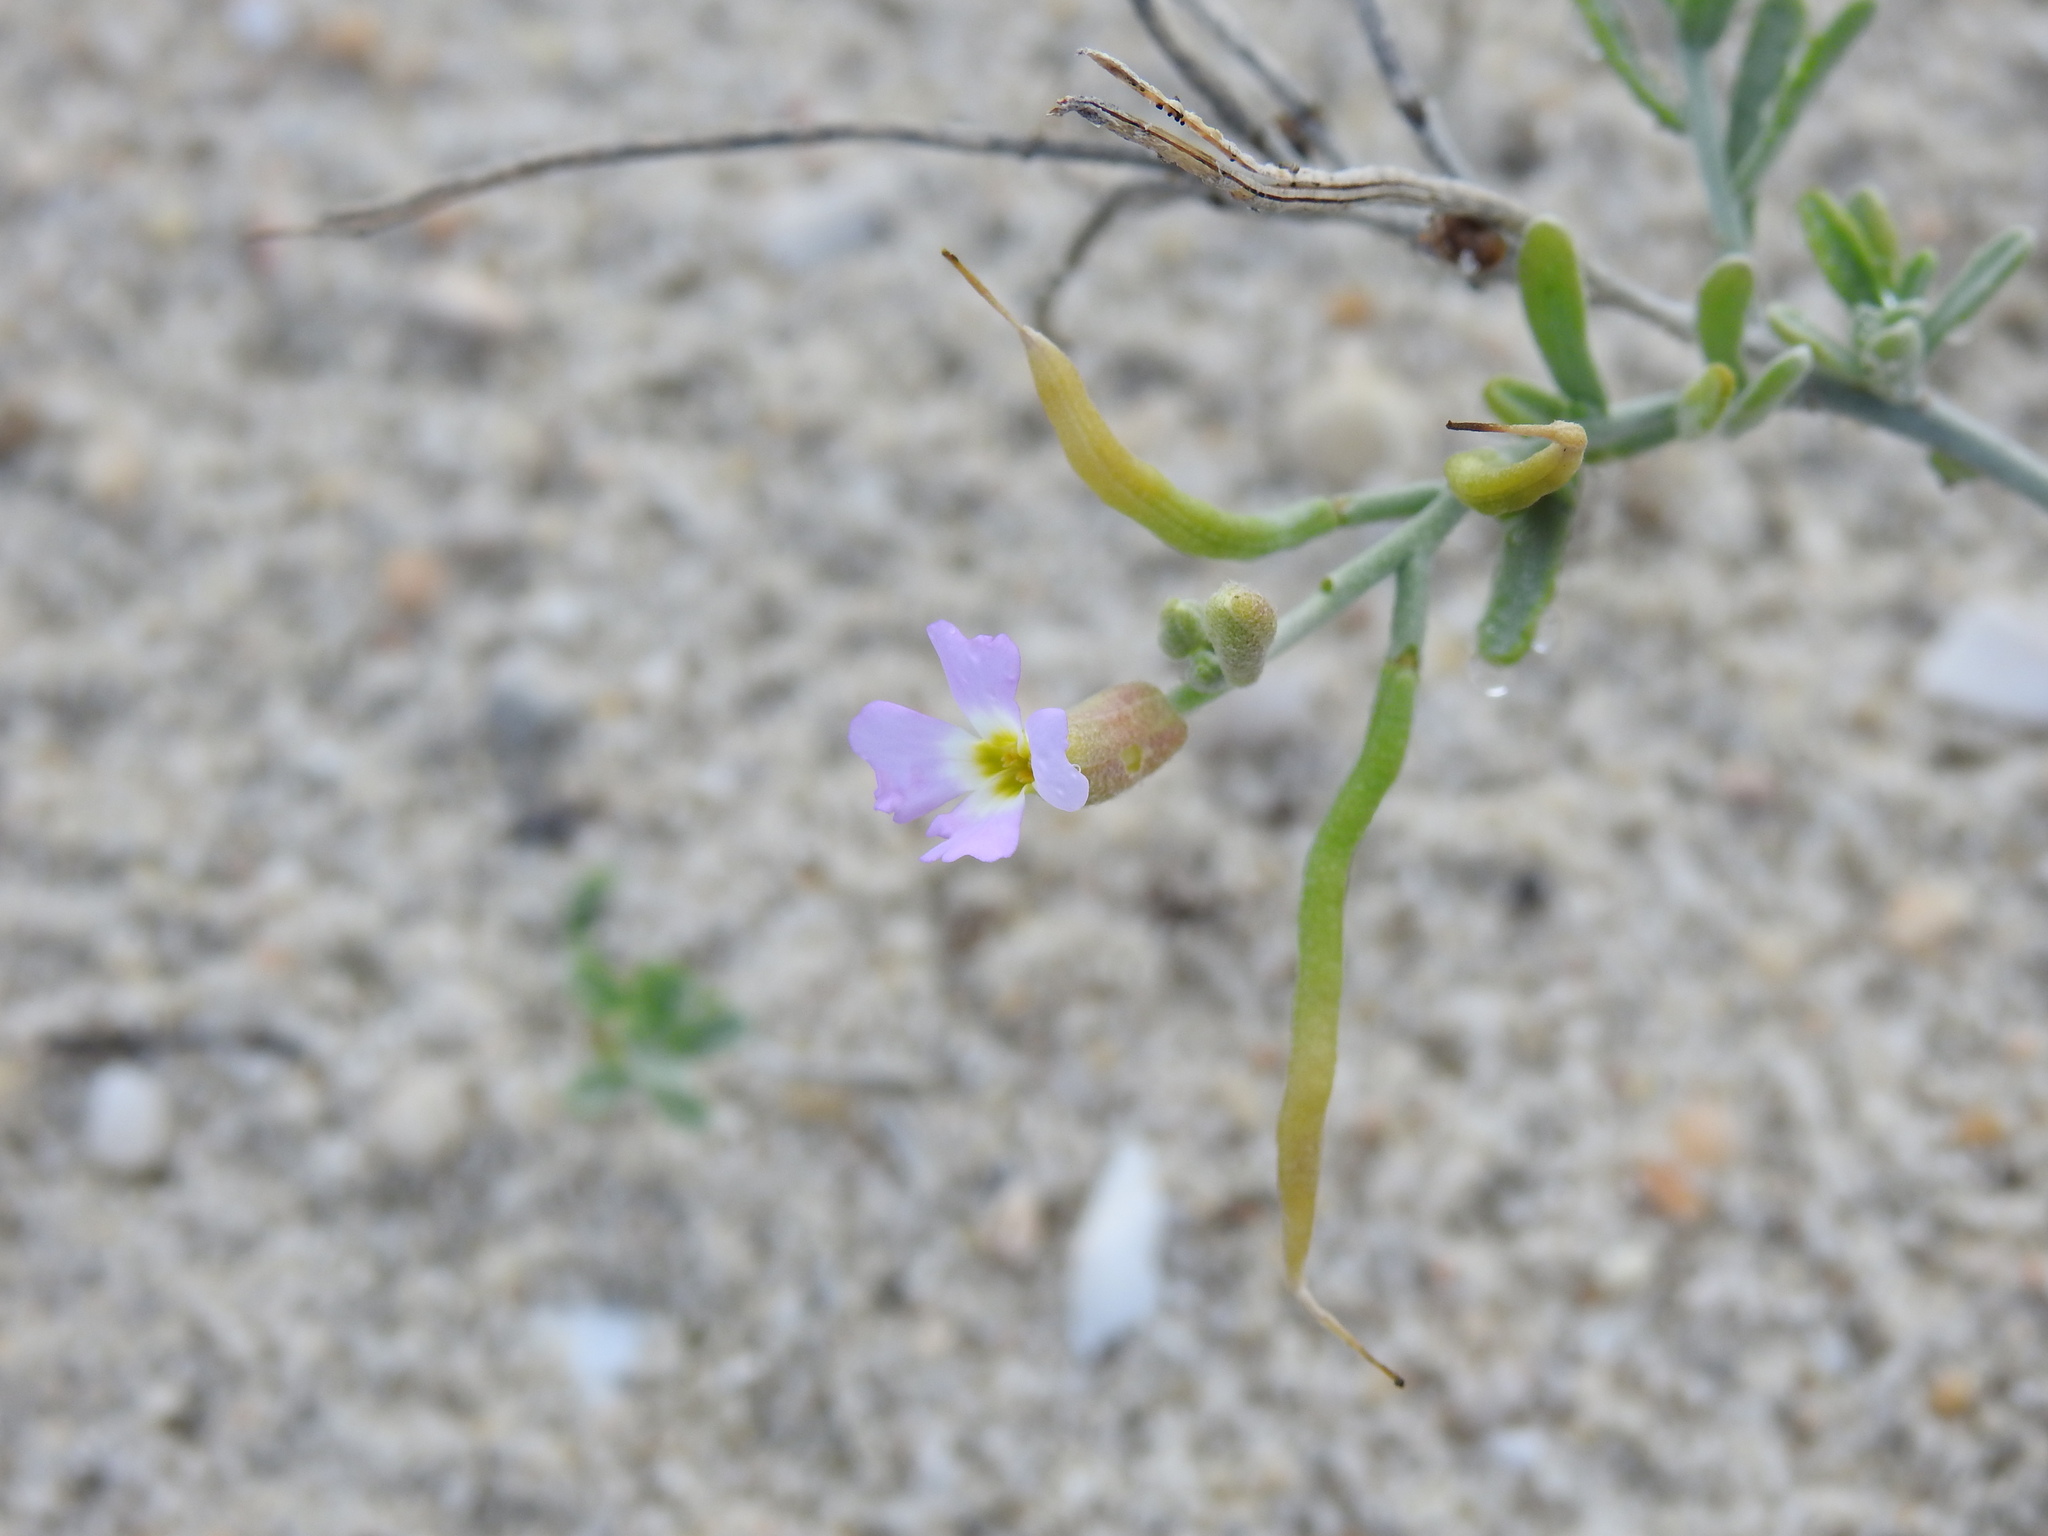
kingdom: Plantae
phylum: Tracheophyta
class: Magnoliopsida
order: Brassicales
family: Brassicaceae
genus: Marcuskochia
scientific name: Marcuskochia ramosissima
